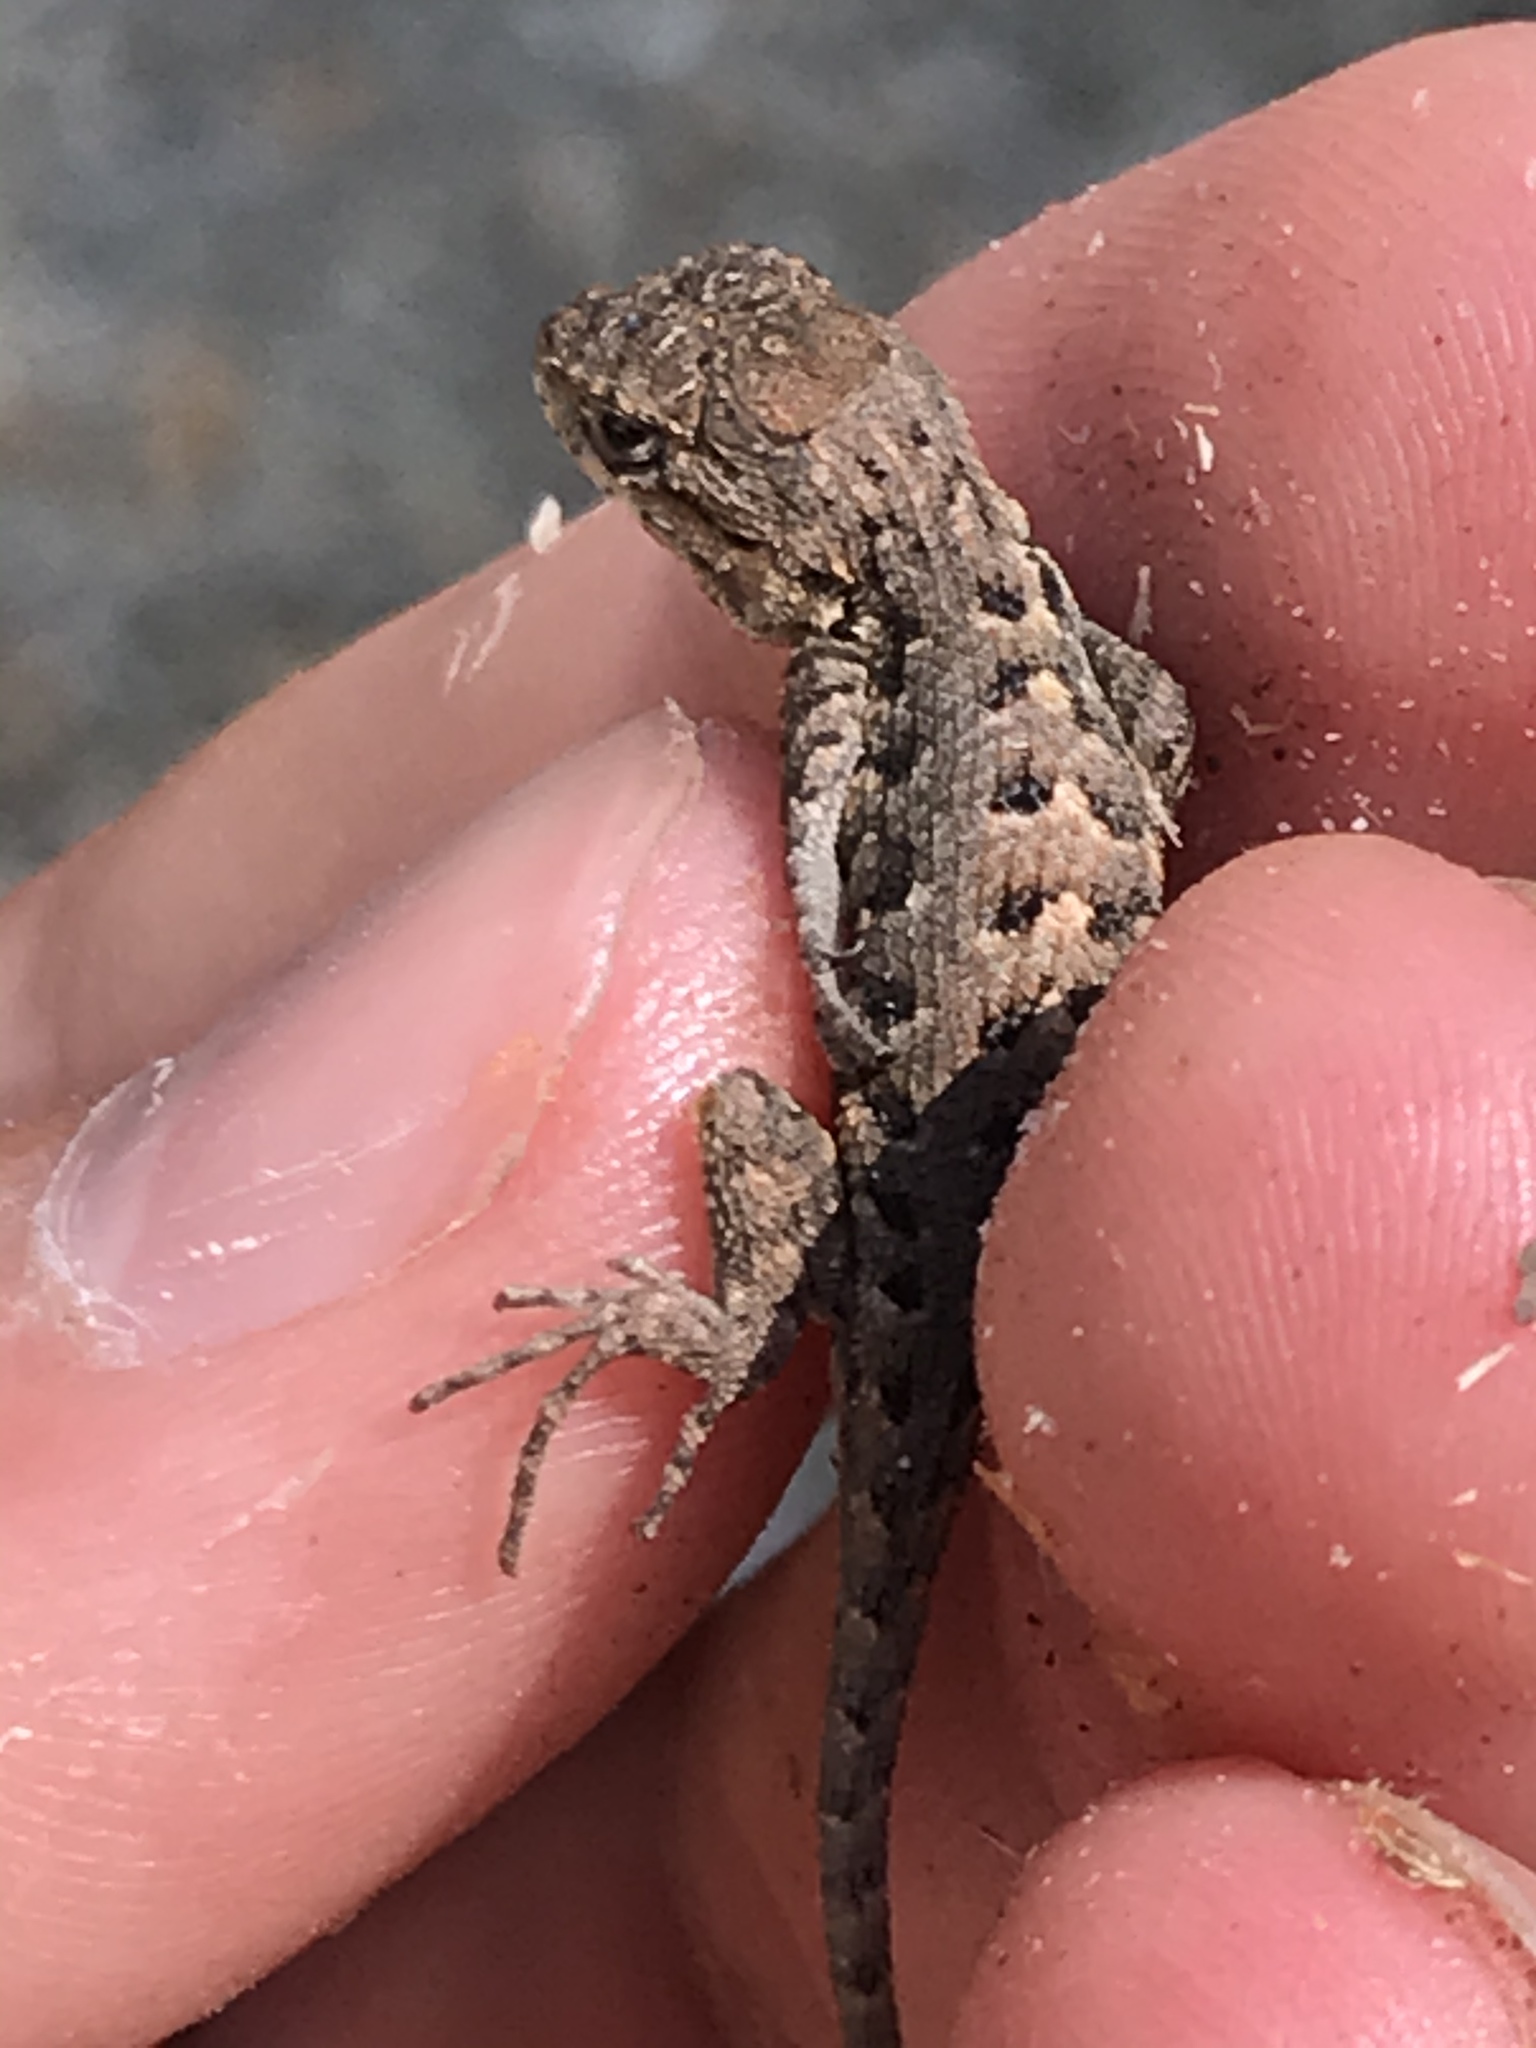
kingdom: Animalia
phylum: Chordata
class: Squamata
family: Phrynosomatidae
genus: Sceloporus
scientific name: Sceloporus occidentalis
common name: Western fence lizard
